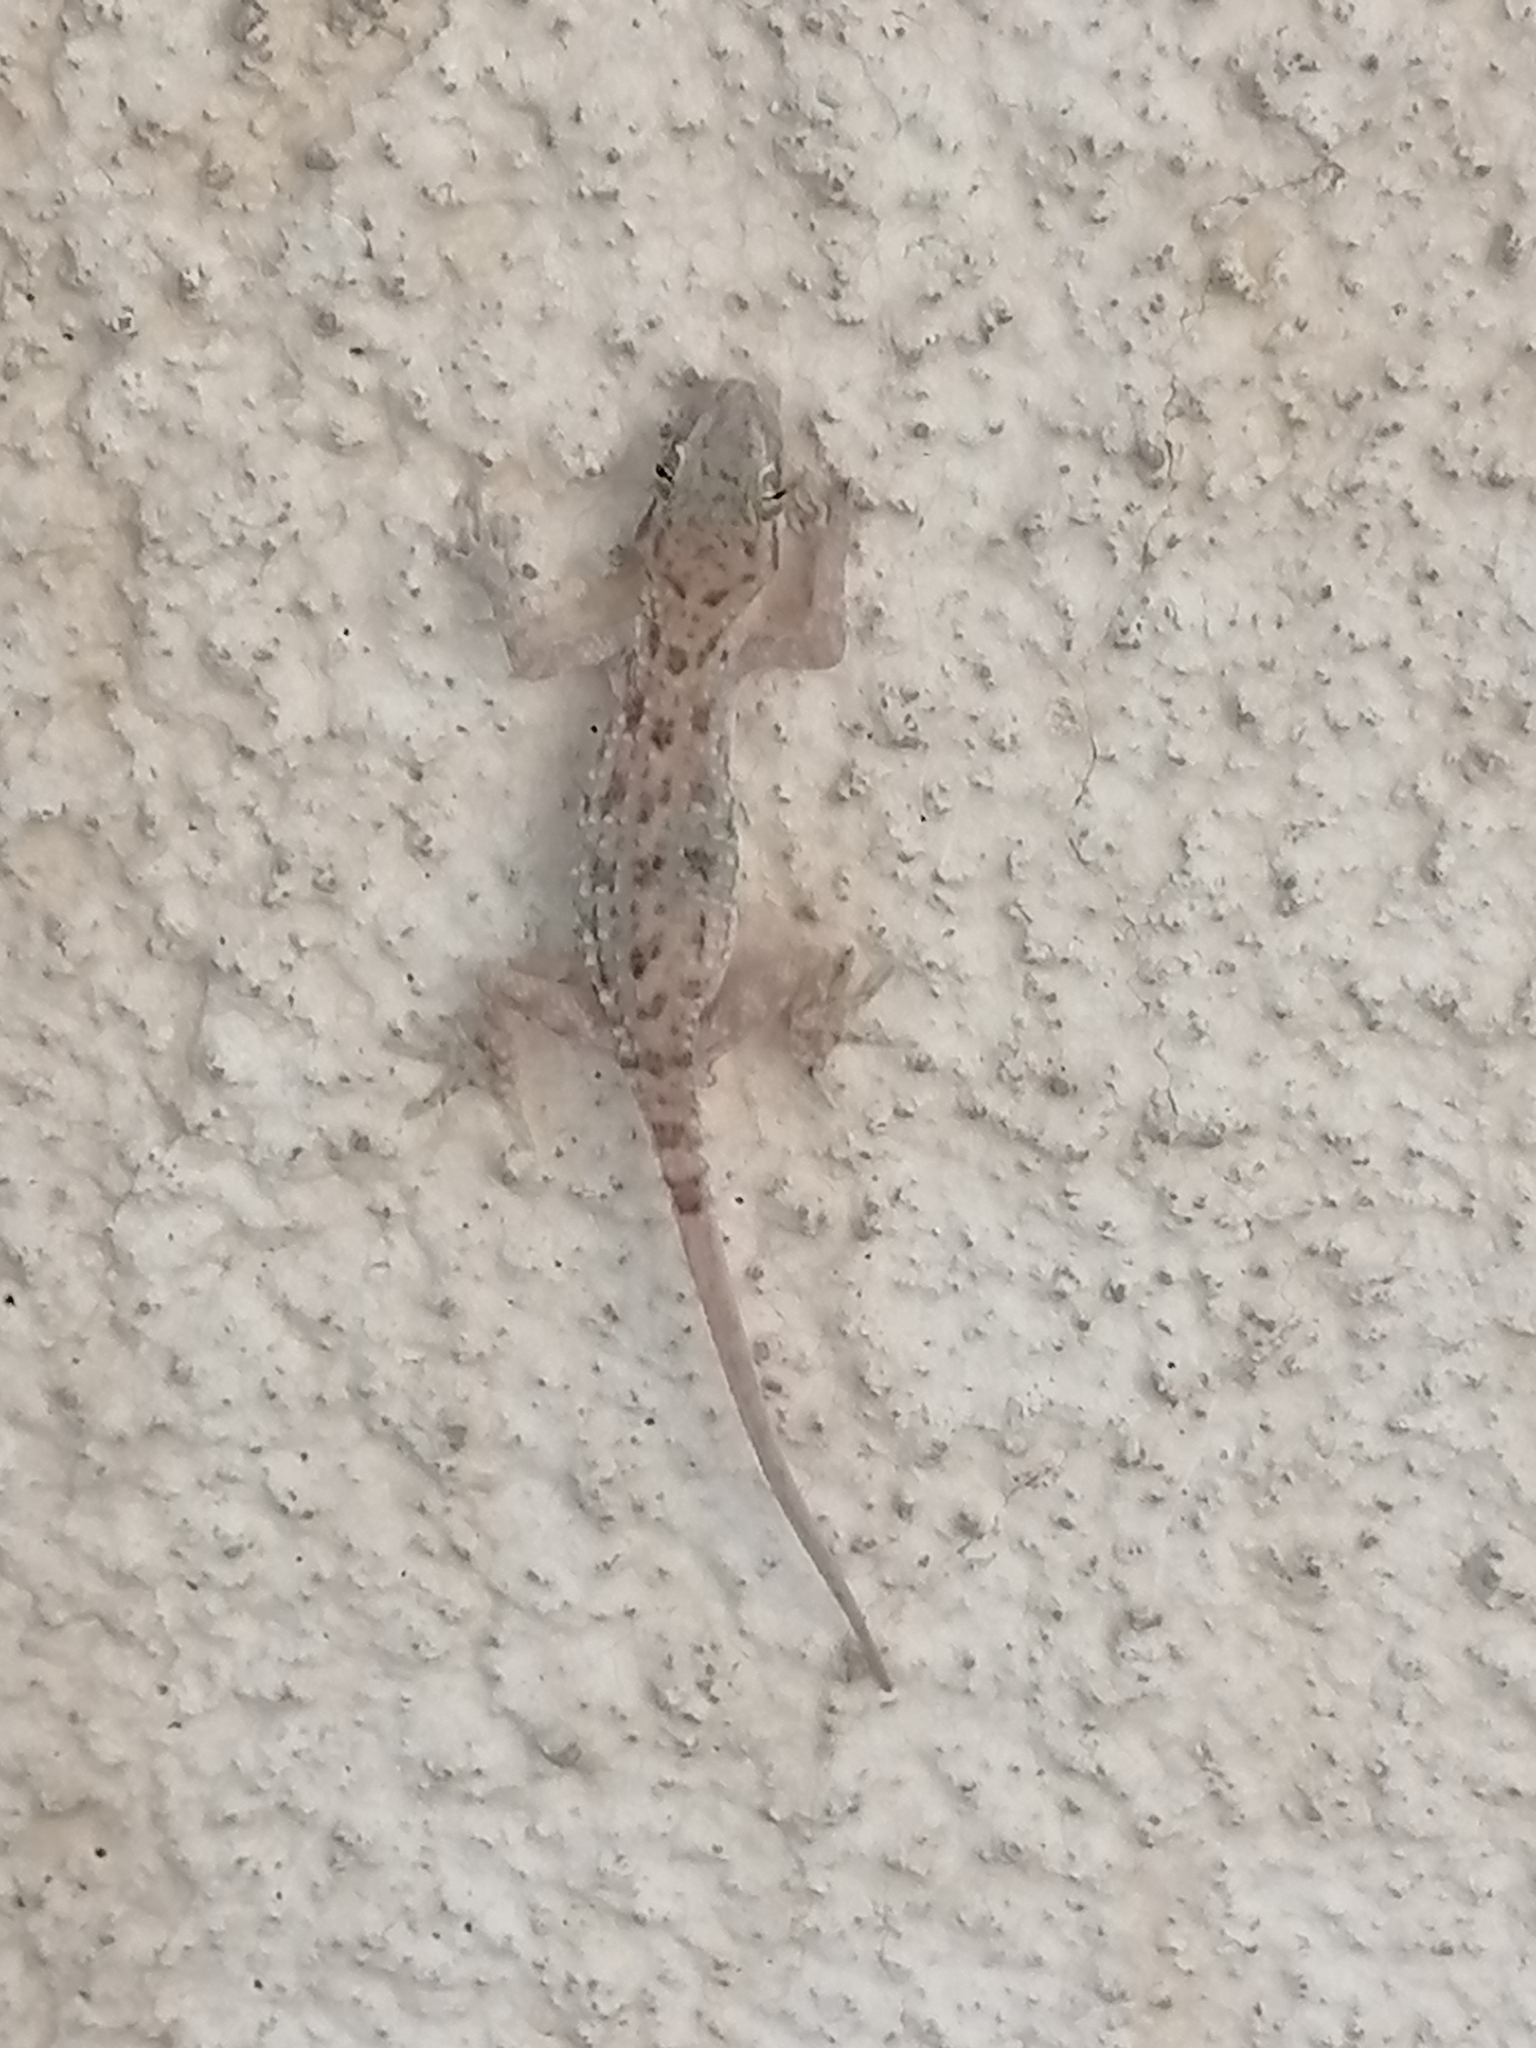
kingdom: Animalia
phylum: Chordata
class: Squamata
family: Gekkonidae
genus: Cyrtopodion
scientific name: Cyrtopodion scabrum
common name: Rough-tailed gecko
